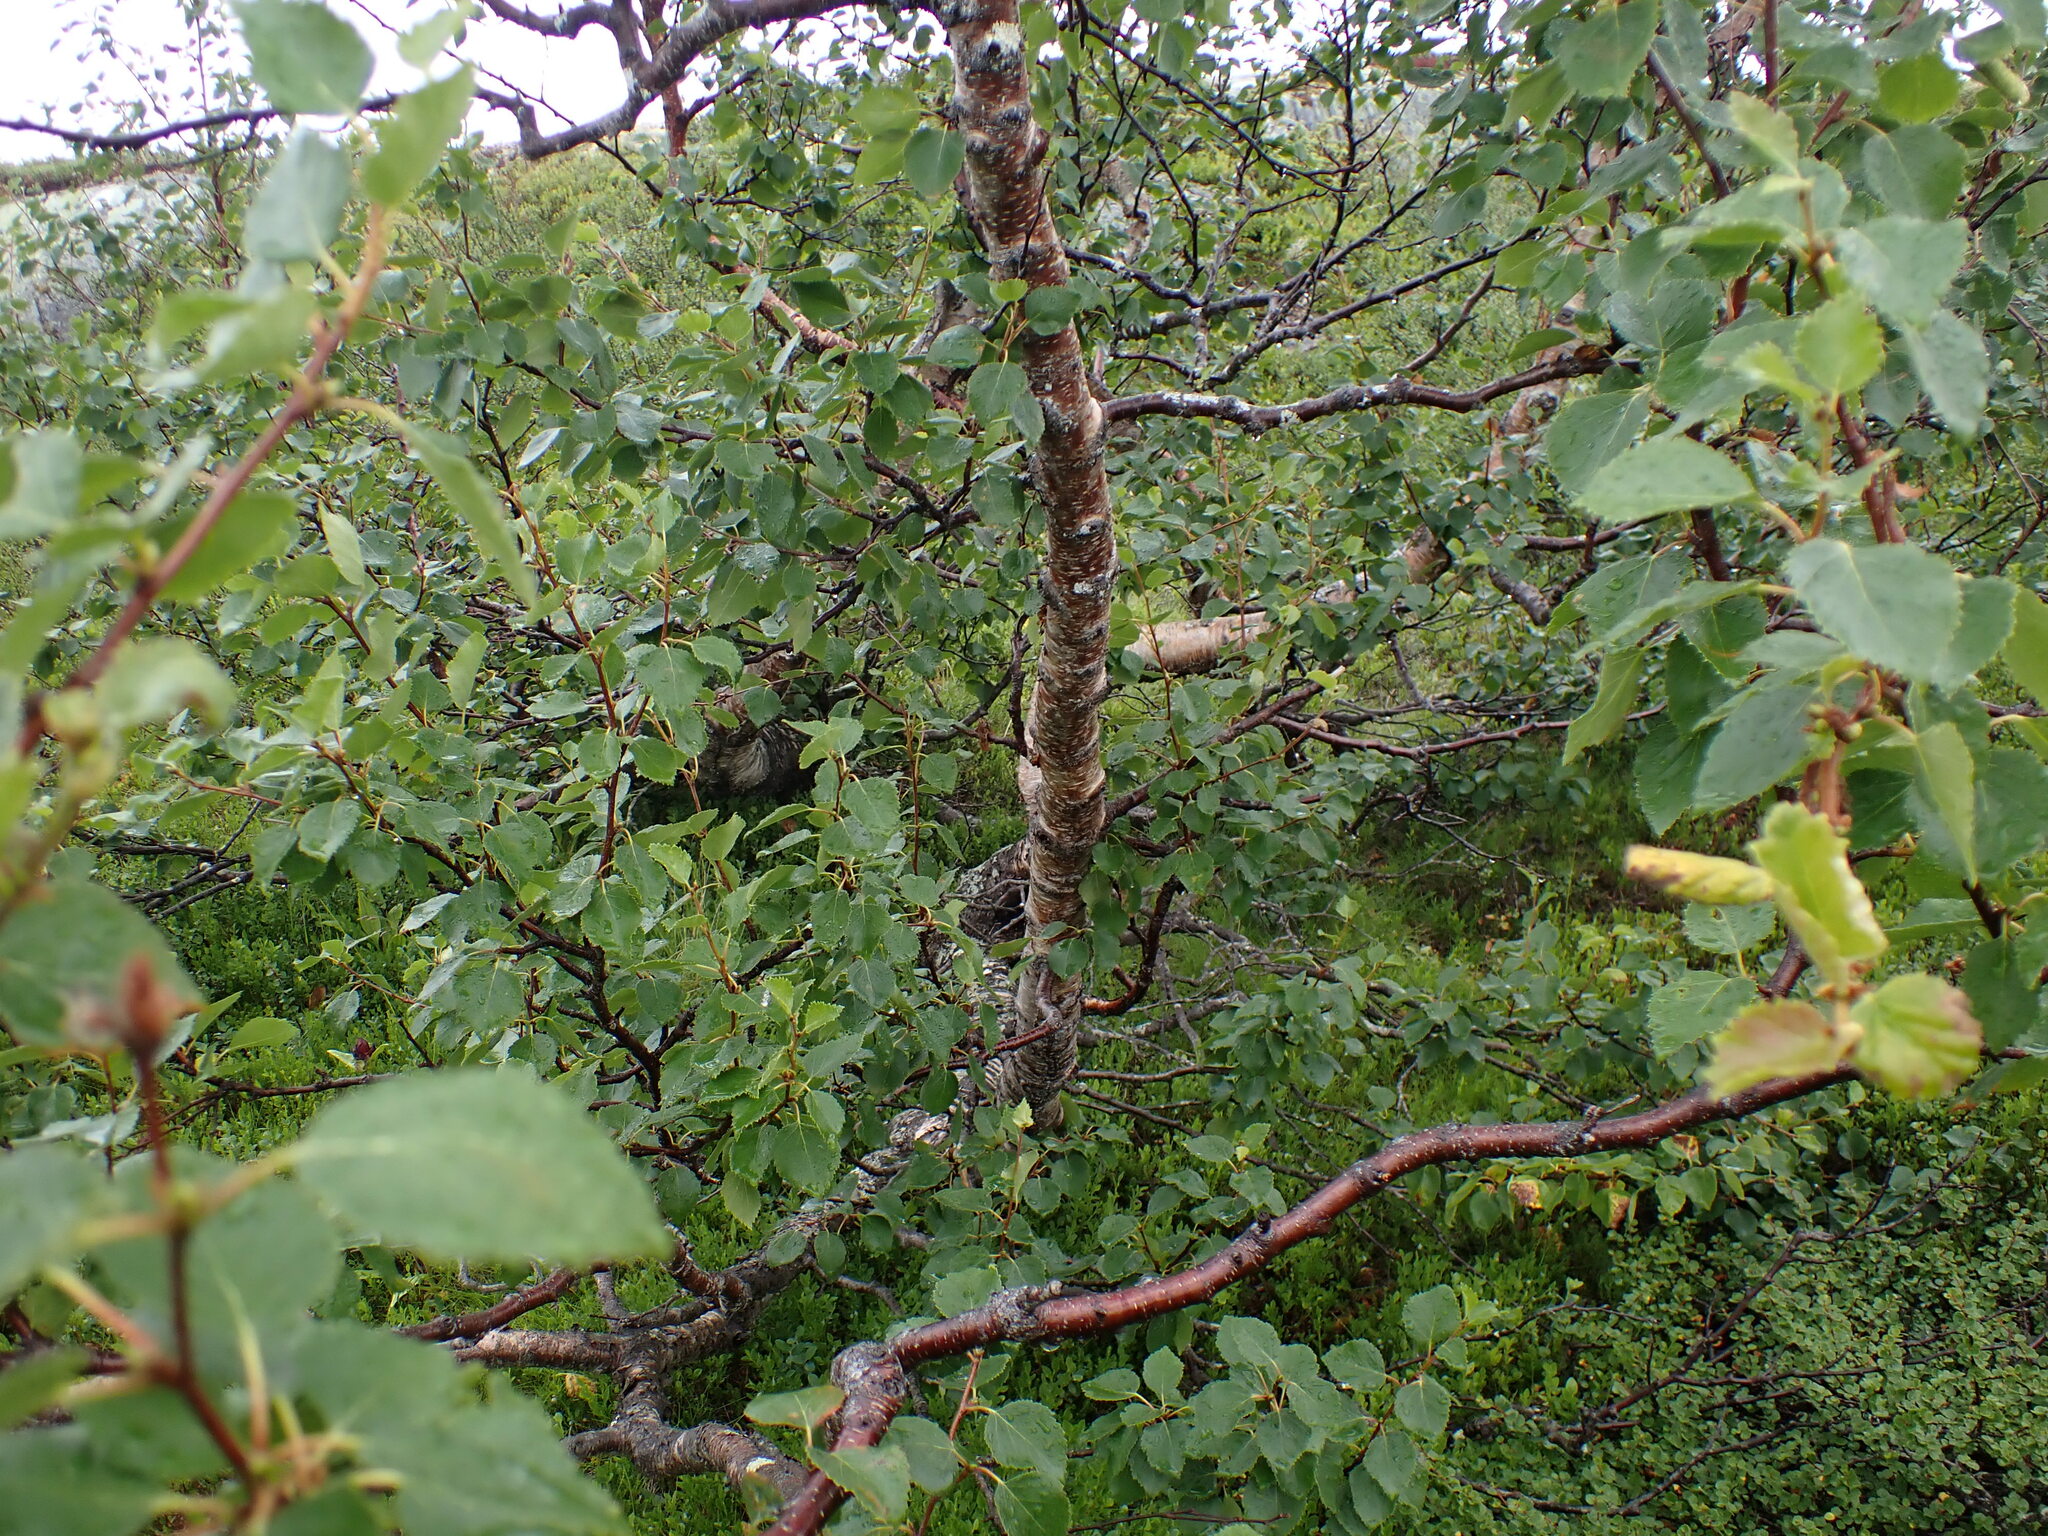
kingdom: Plantae
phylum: Tracheophyta
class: Magnoliopsida
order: Fagales
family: Betulaceae
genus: Betula
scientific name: Betula pubescens
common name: Downy birch
